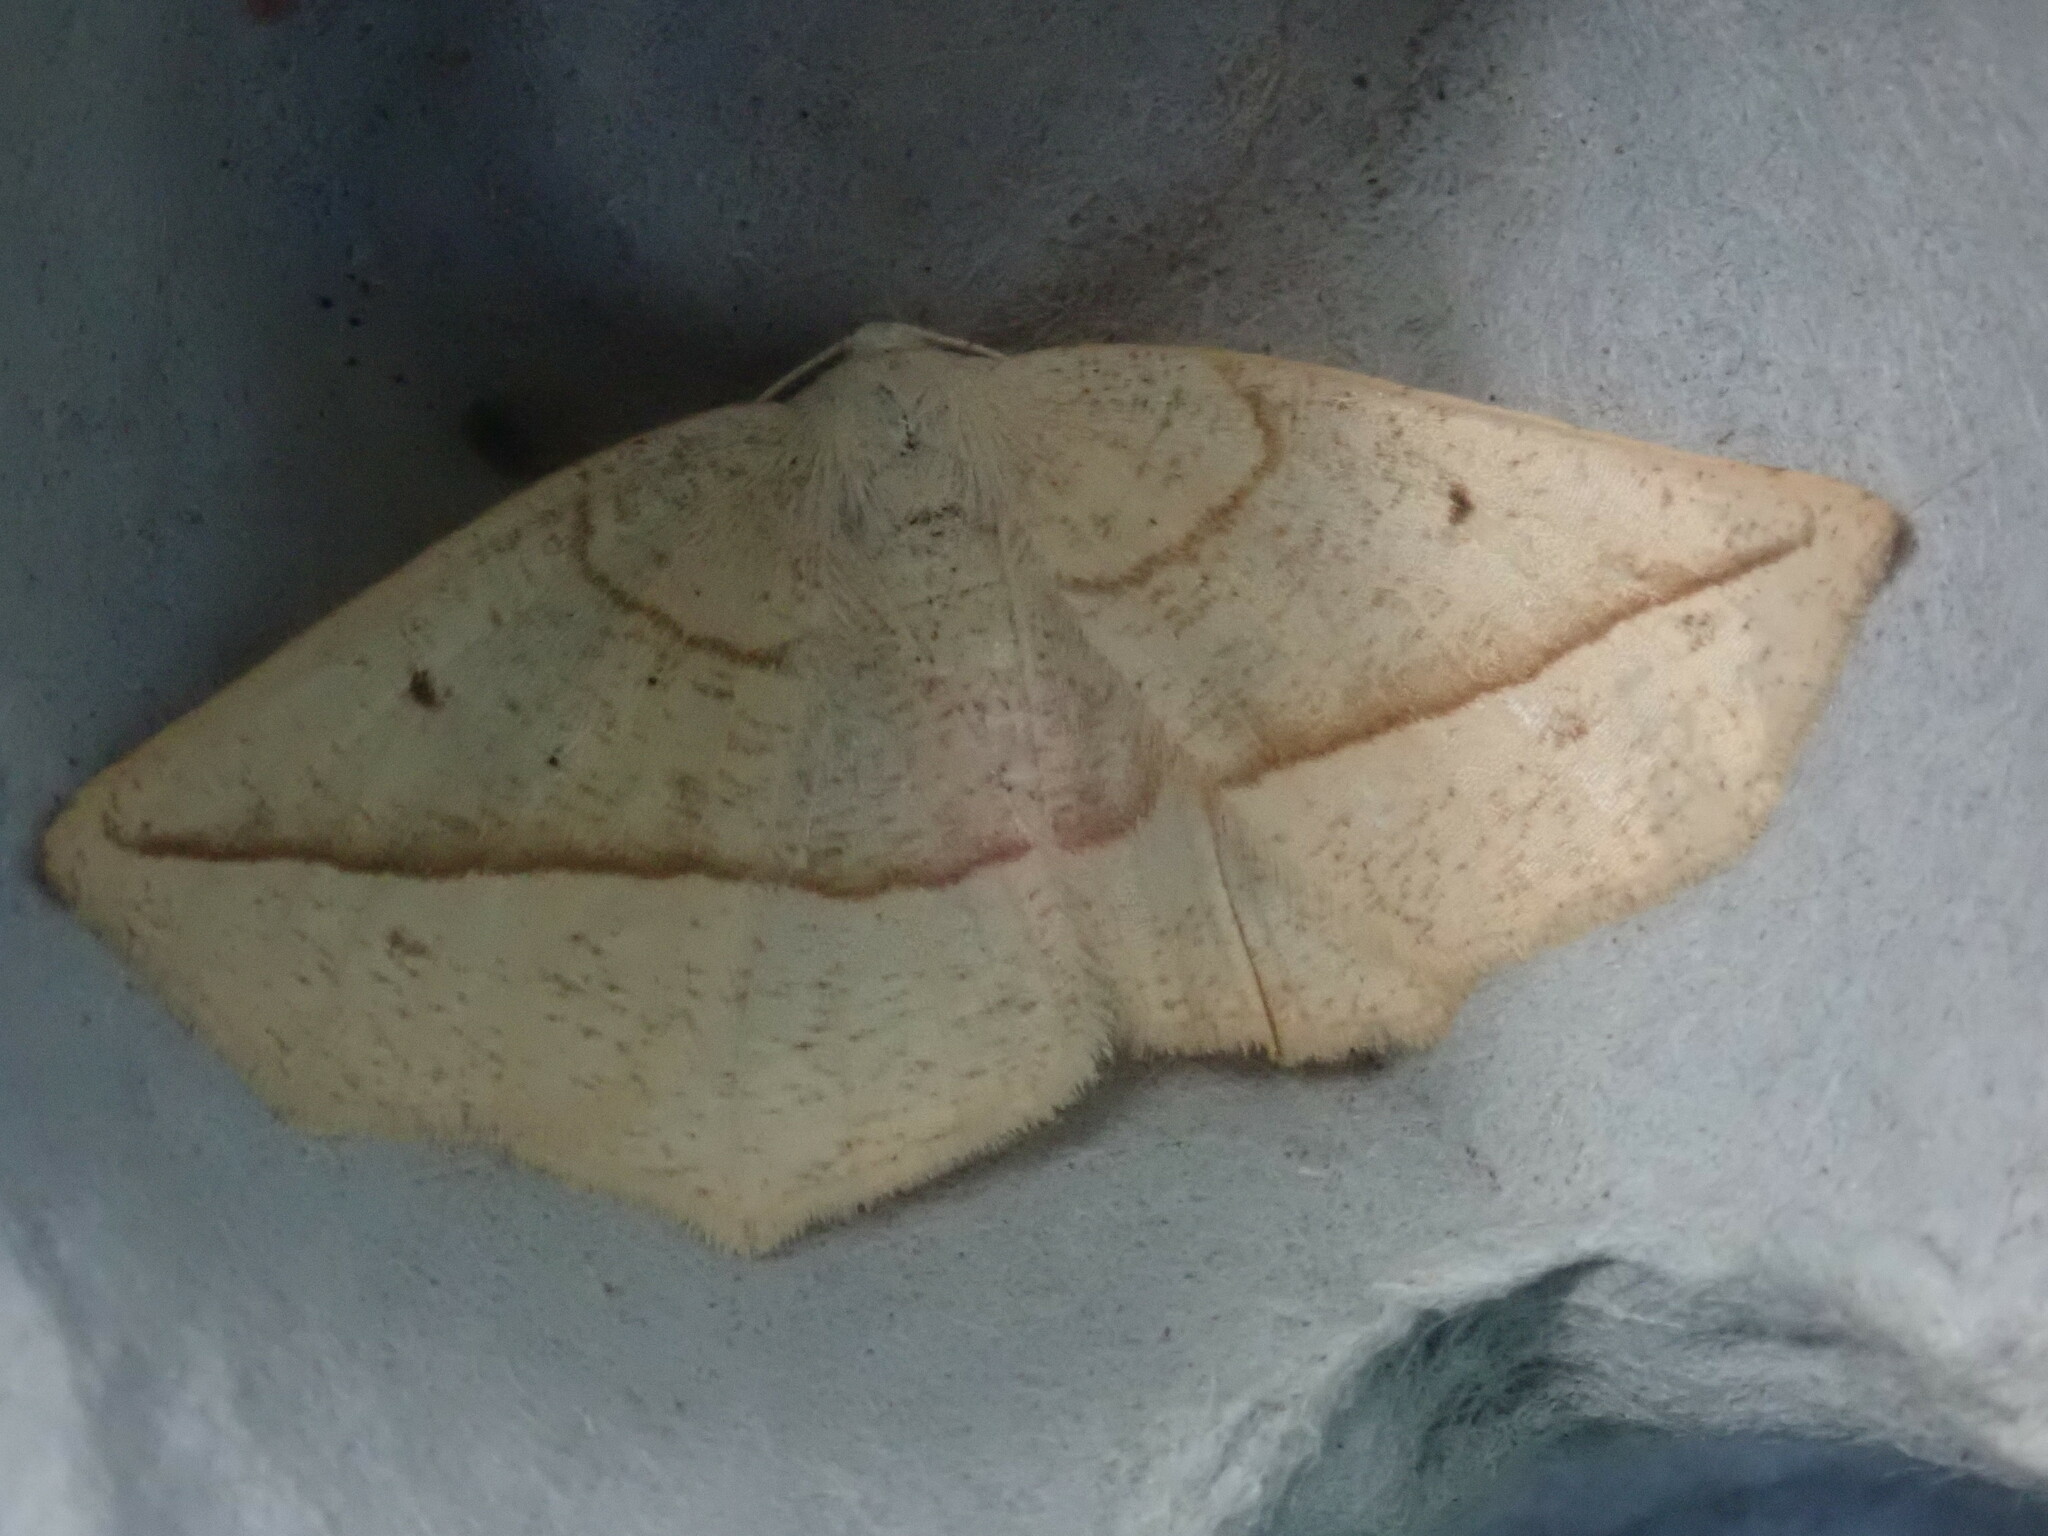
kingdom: Animalia
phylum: Arthropoda
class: Insecta
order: Lepidoptera
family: Geometridae
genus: Eusarca
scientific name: Eusarca confusaria
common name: Confused eusarca
